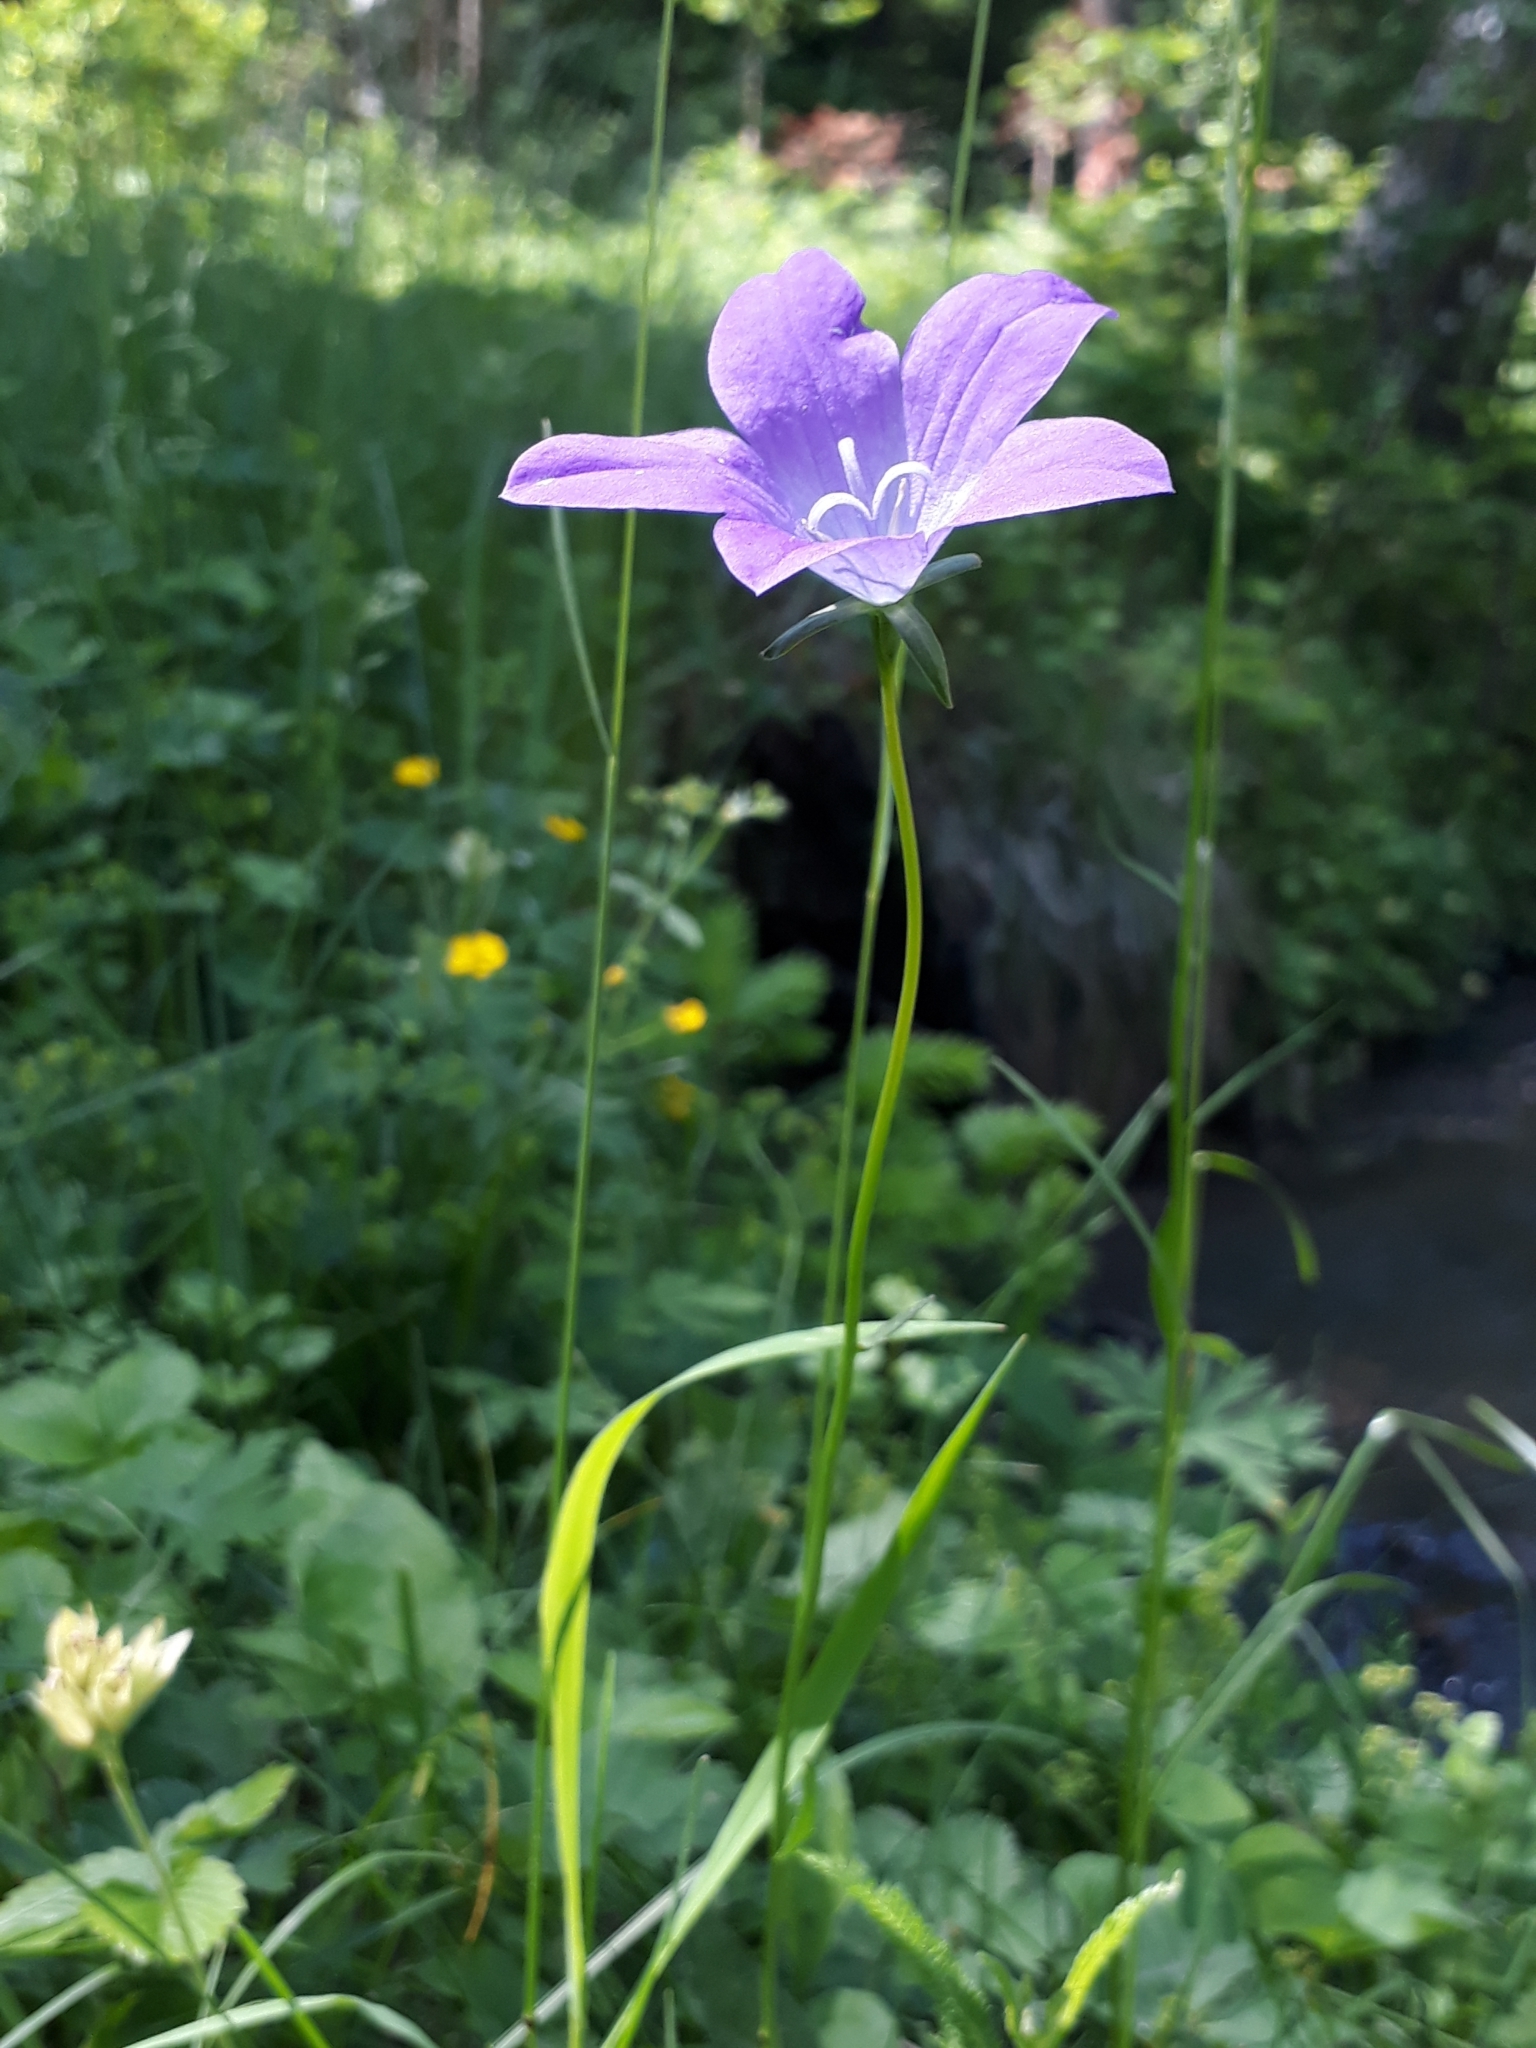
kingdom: Plantae
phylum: Tracheophyta
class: Magnoliopsida
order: Asterales
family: Campanulaceae
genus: Campanula
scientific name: Campanula stevenii
